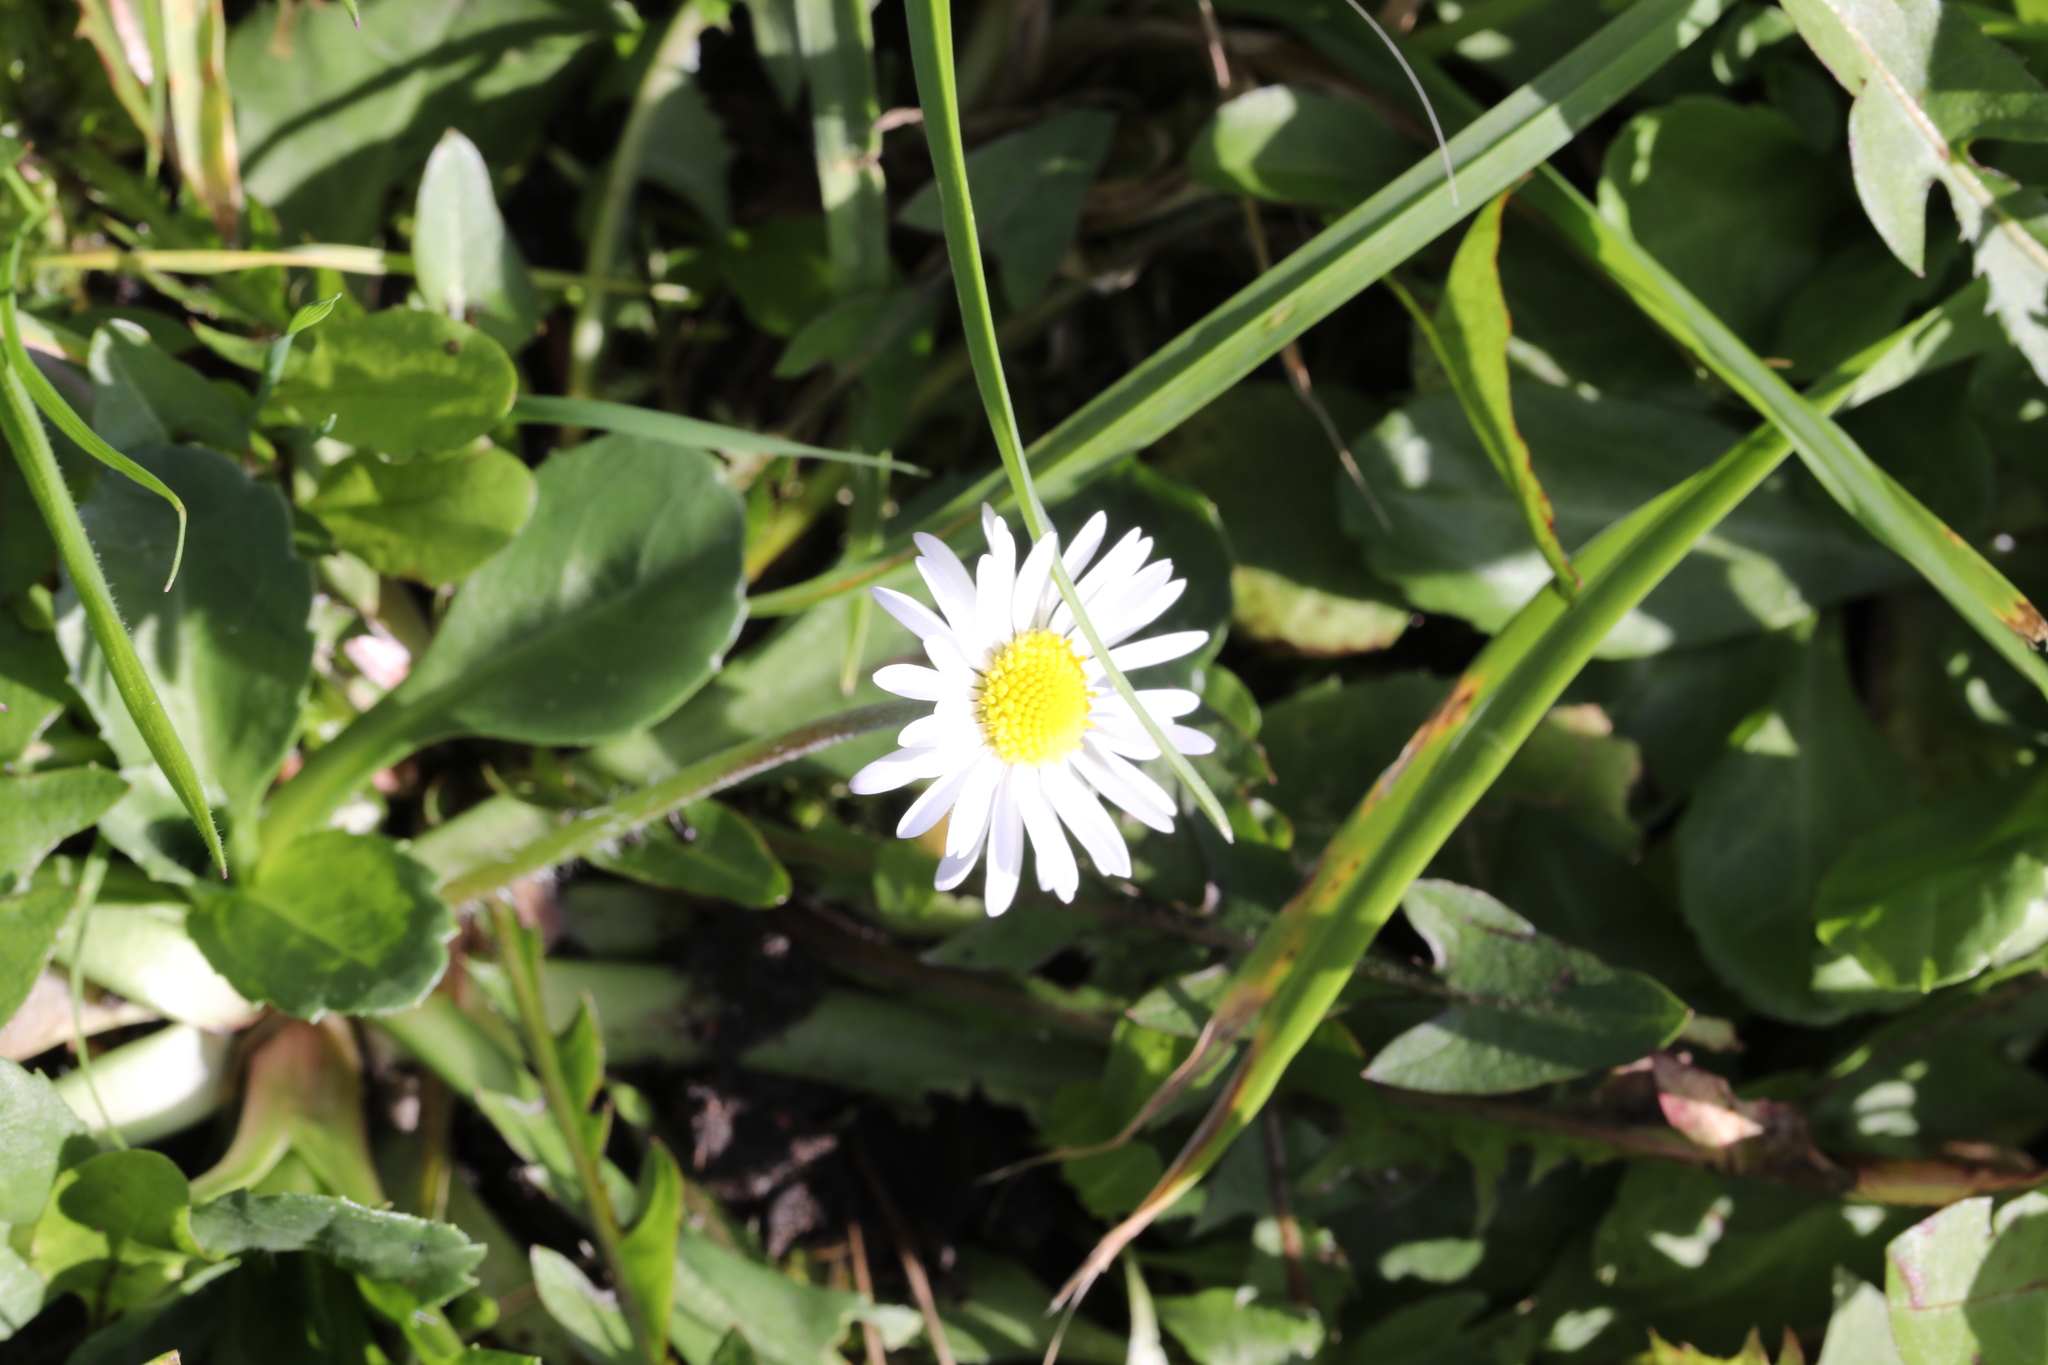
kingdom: Plantae
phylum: Tracheophyta
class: Magnoliopsida
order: Asterales
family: Asteraceae
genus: Bellis
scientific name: Bellis perennis
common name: Lawndaisy
